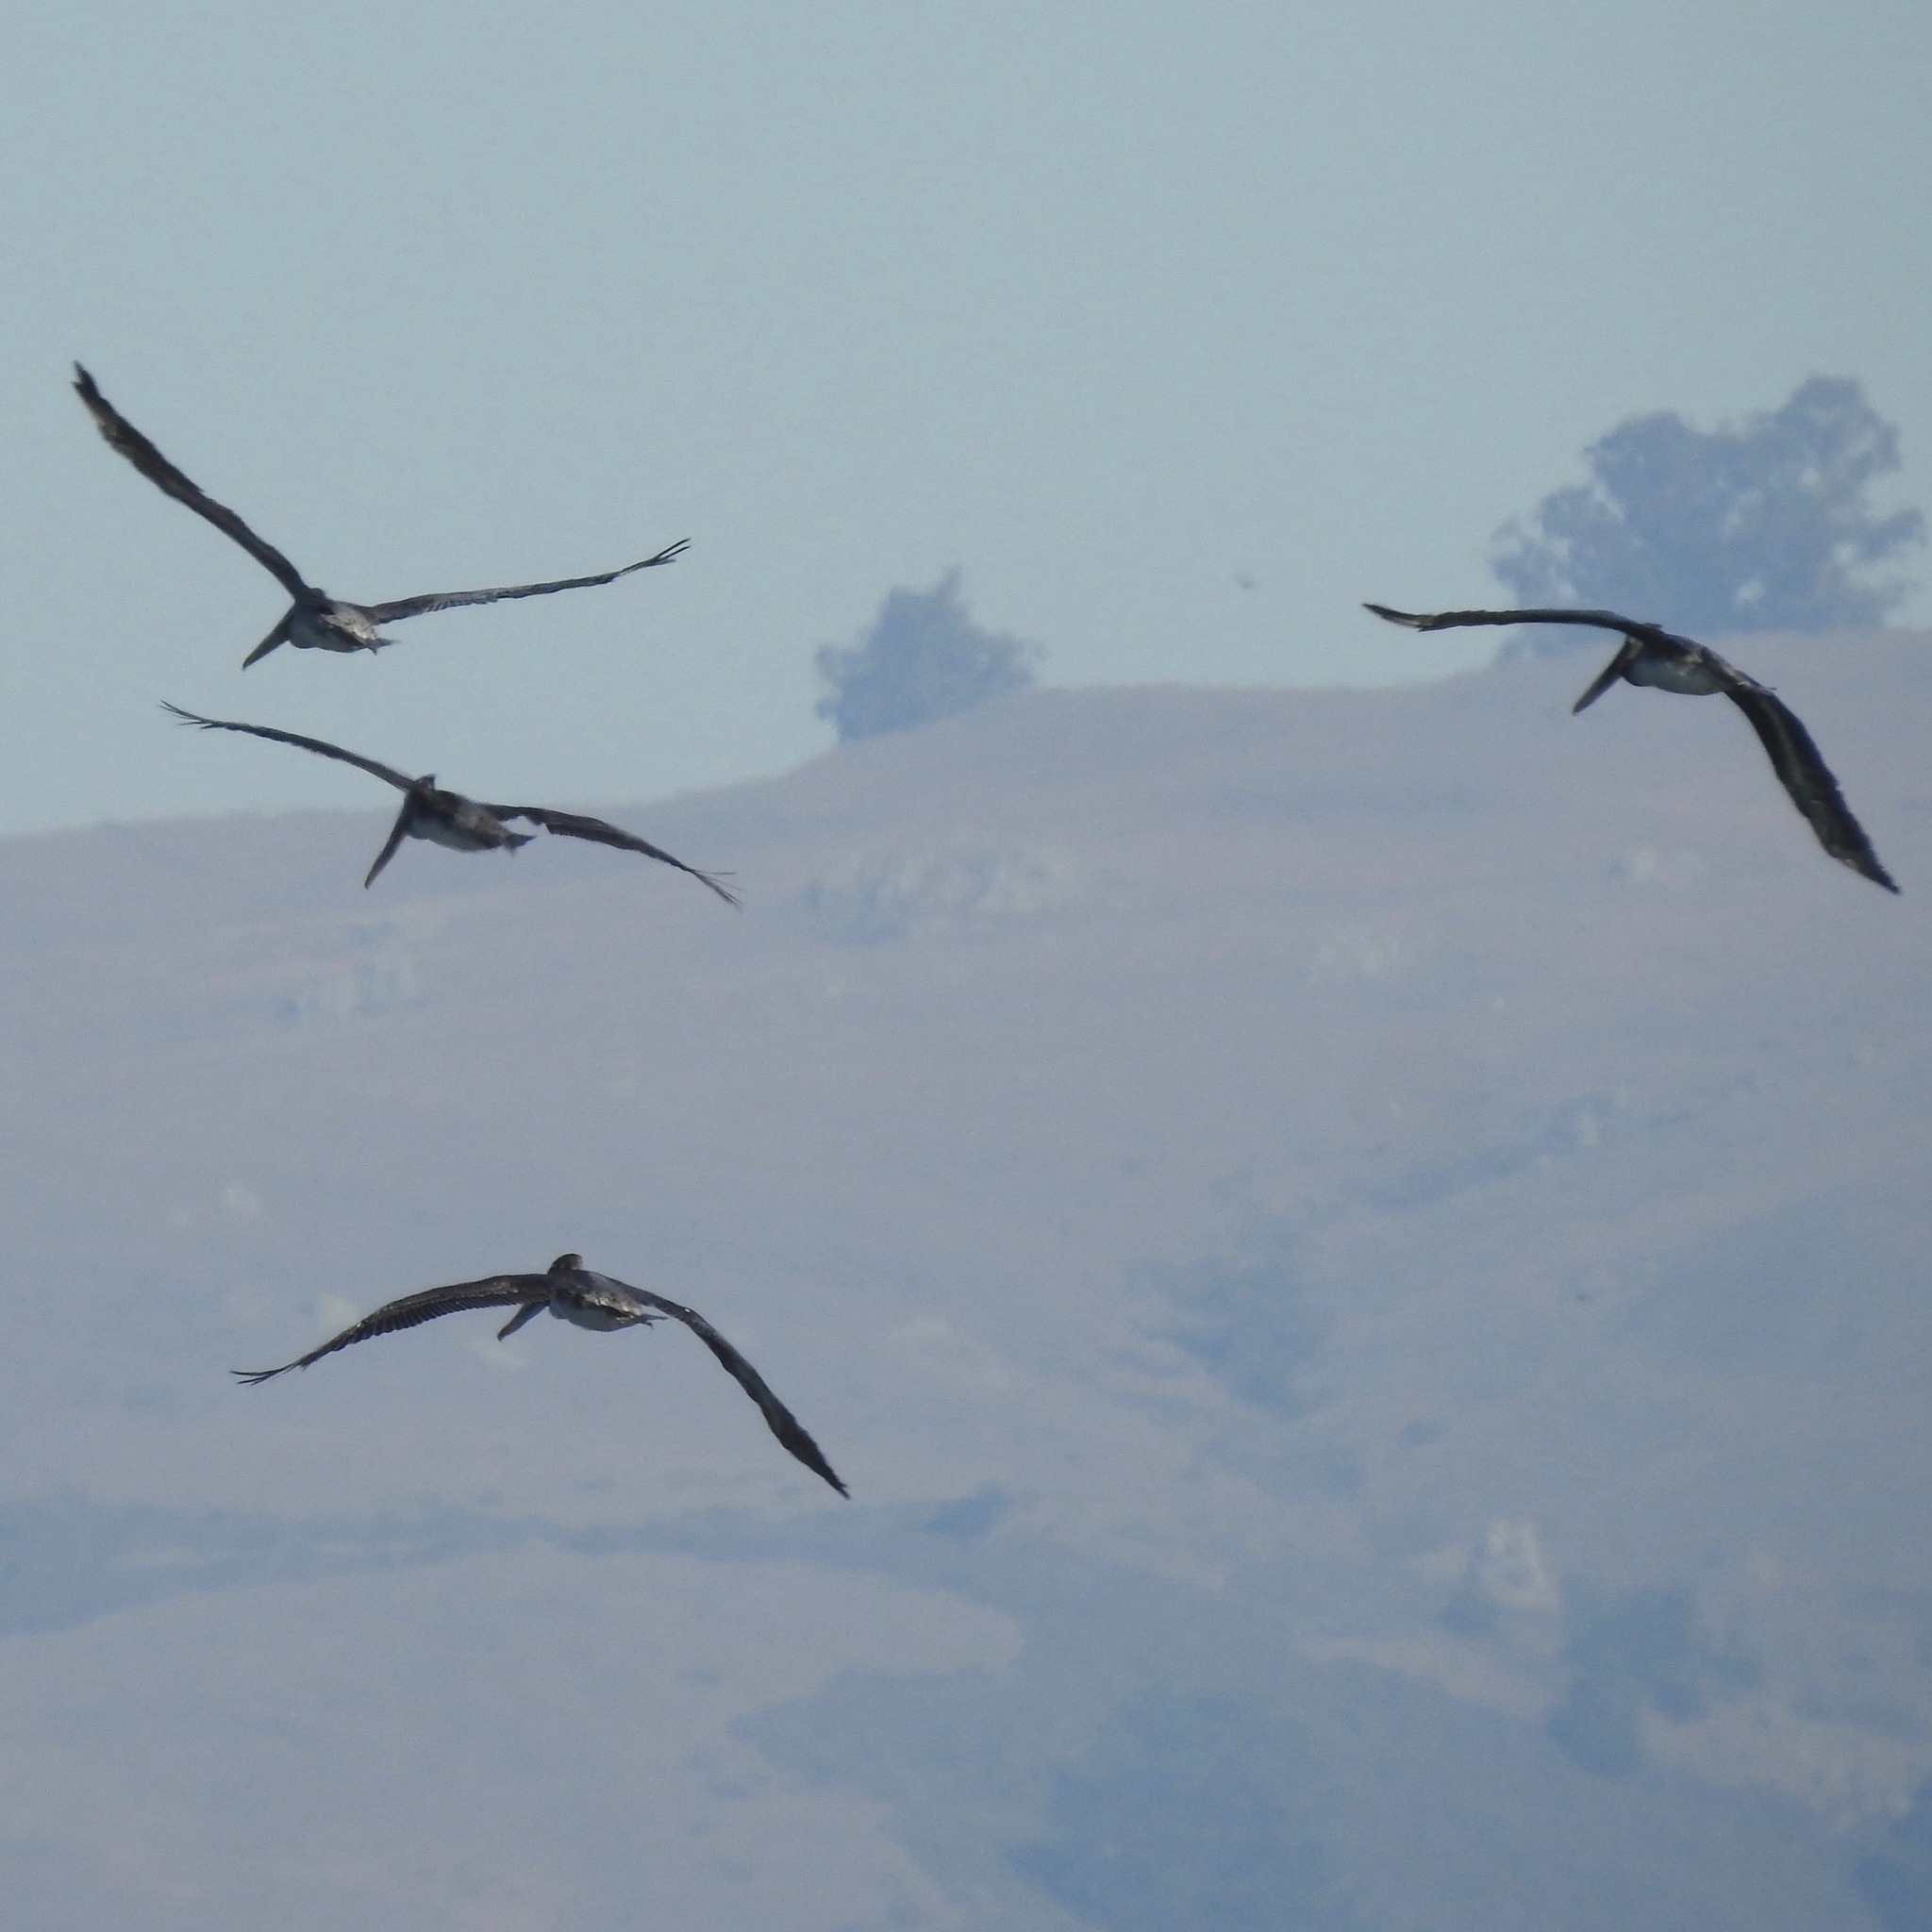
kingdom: Animalia
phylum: Chordata
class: Aves
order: Pelecaniformes
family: Pelecanidae
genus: Pelecanus
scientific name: Pelecanus occidentalis
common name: Brown pelican
